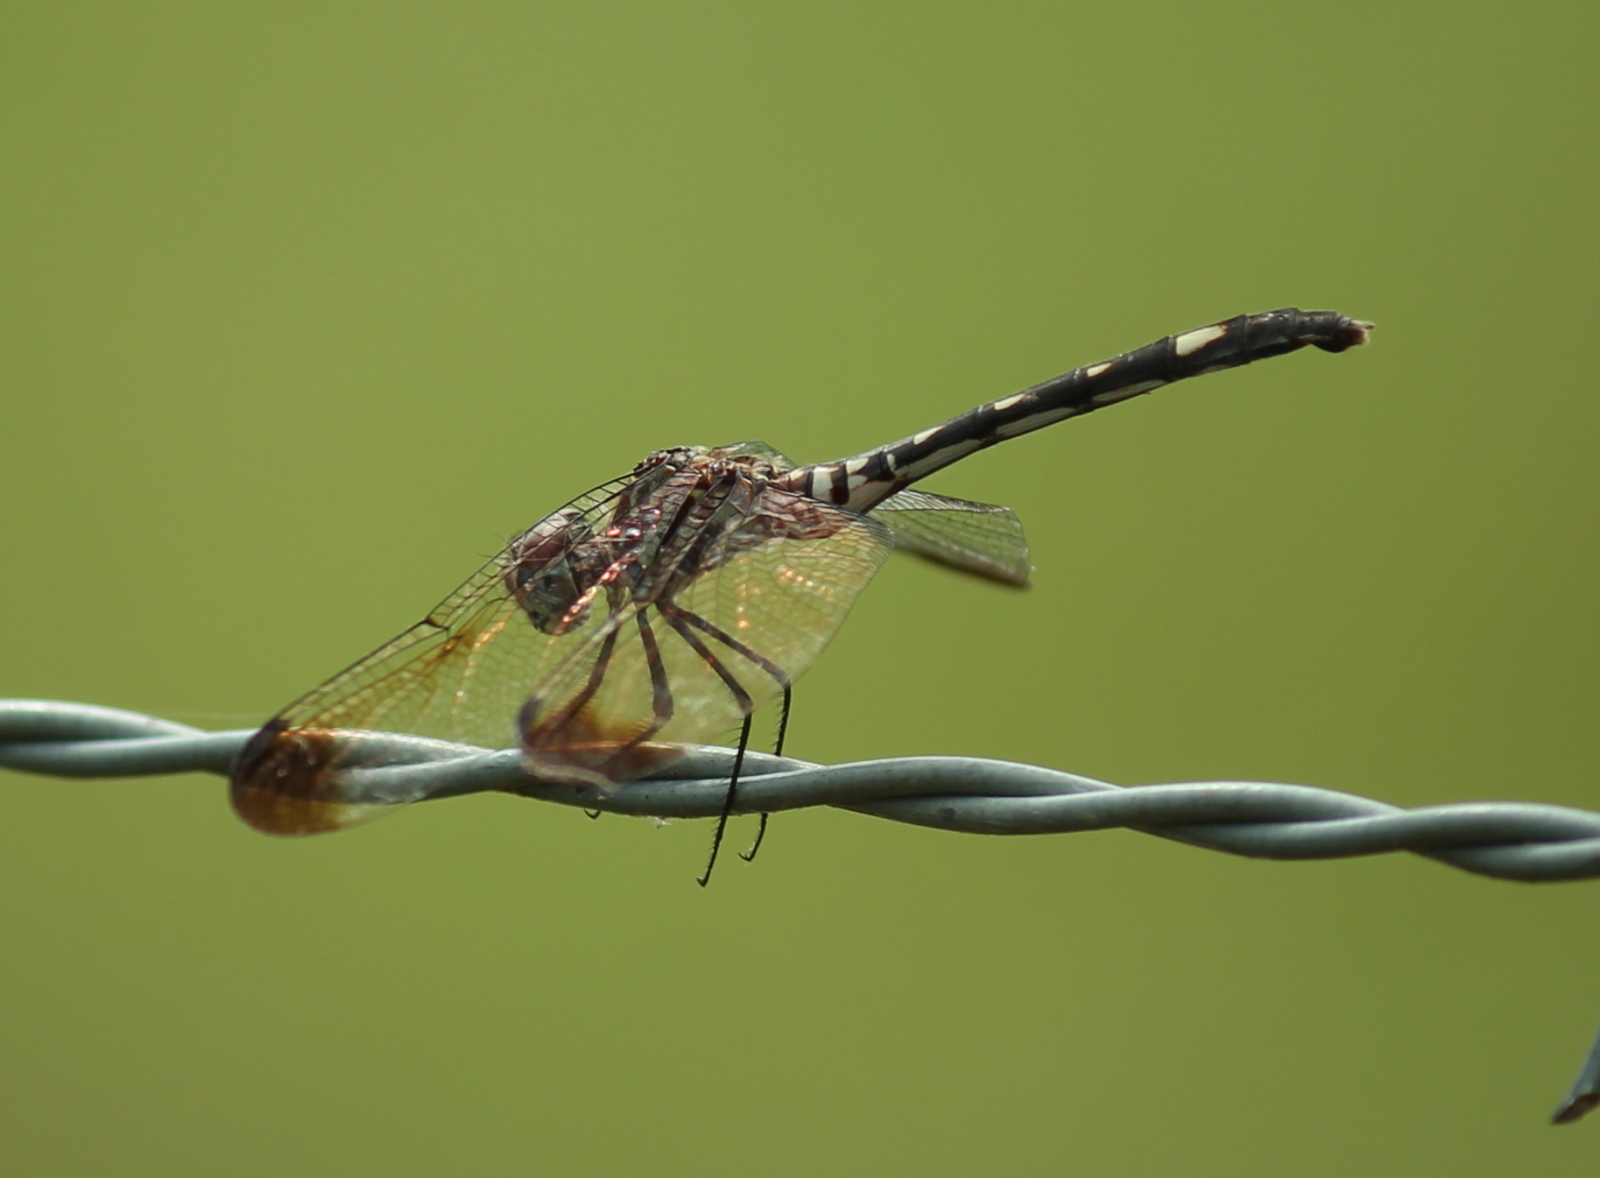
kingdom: Animalia
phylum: Arthropoda
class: Insecta
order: Odonata
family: Libellulidae
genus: Dythemis
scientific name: Dythemis velox
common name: Swift setwing
